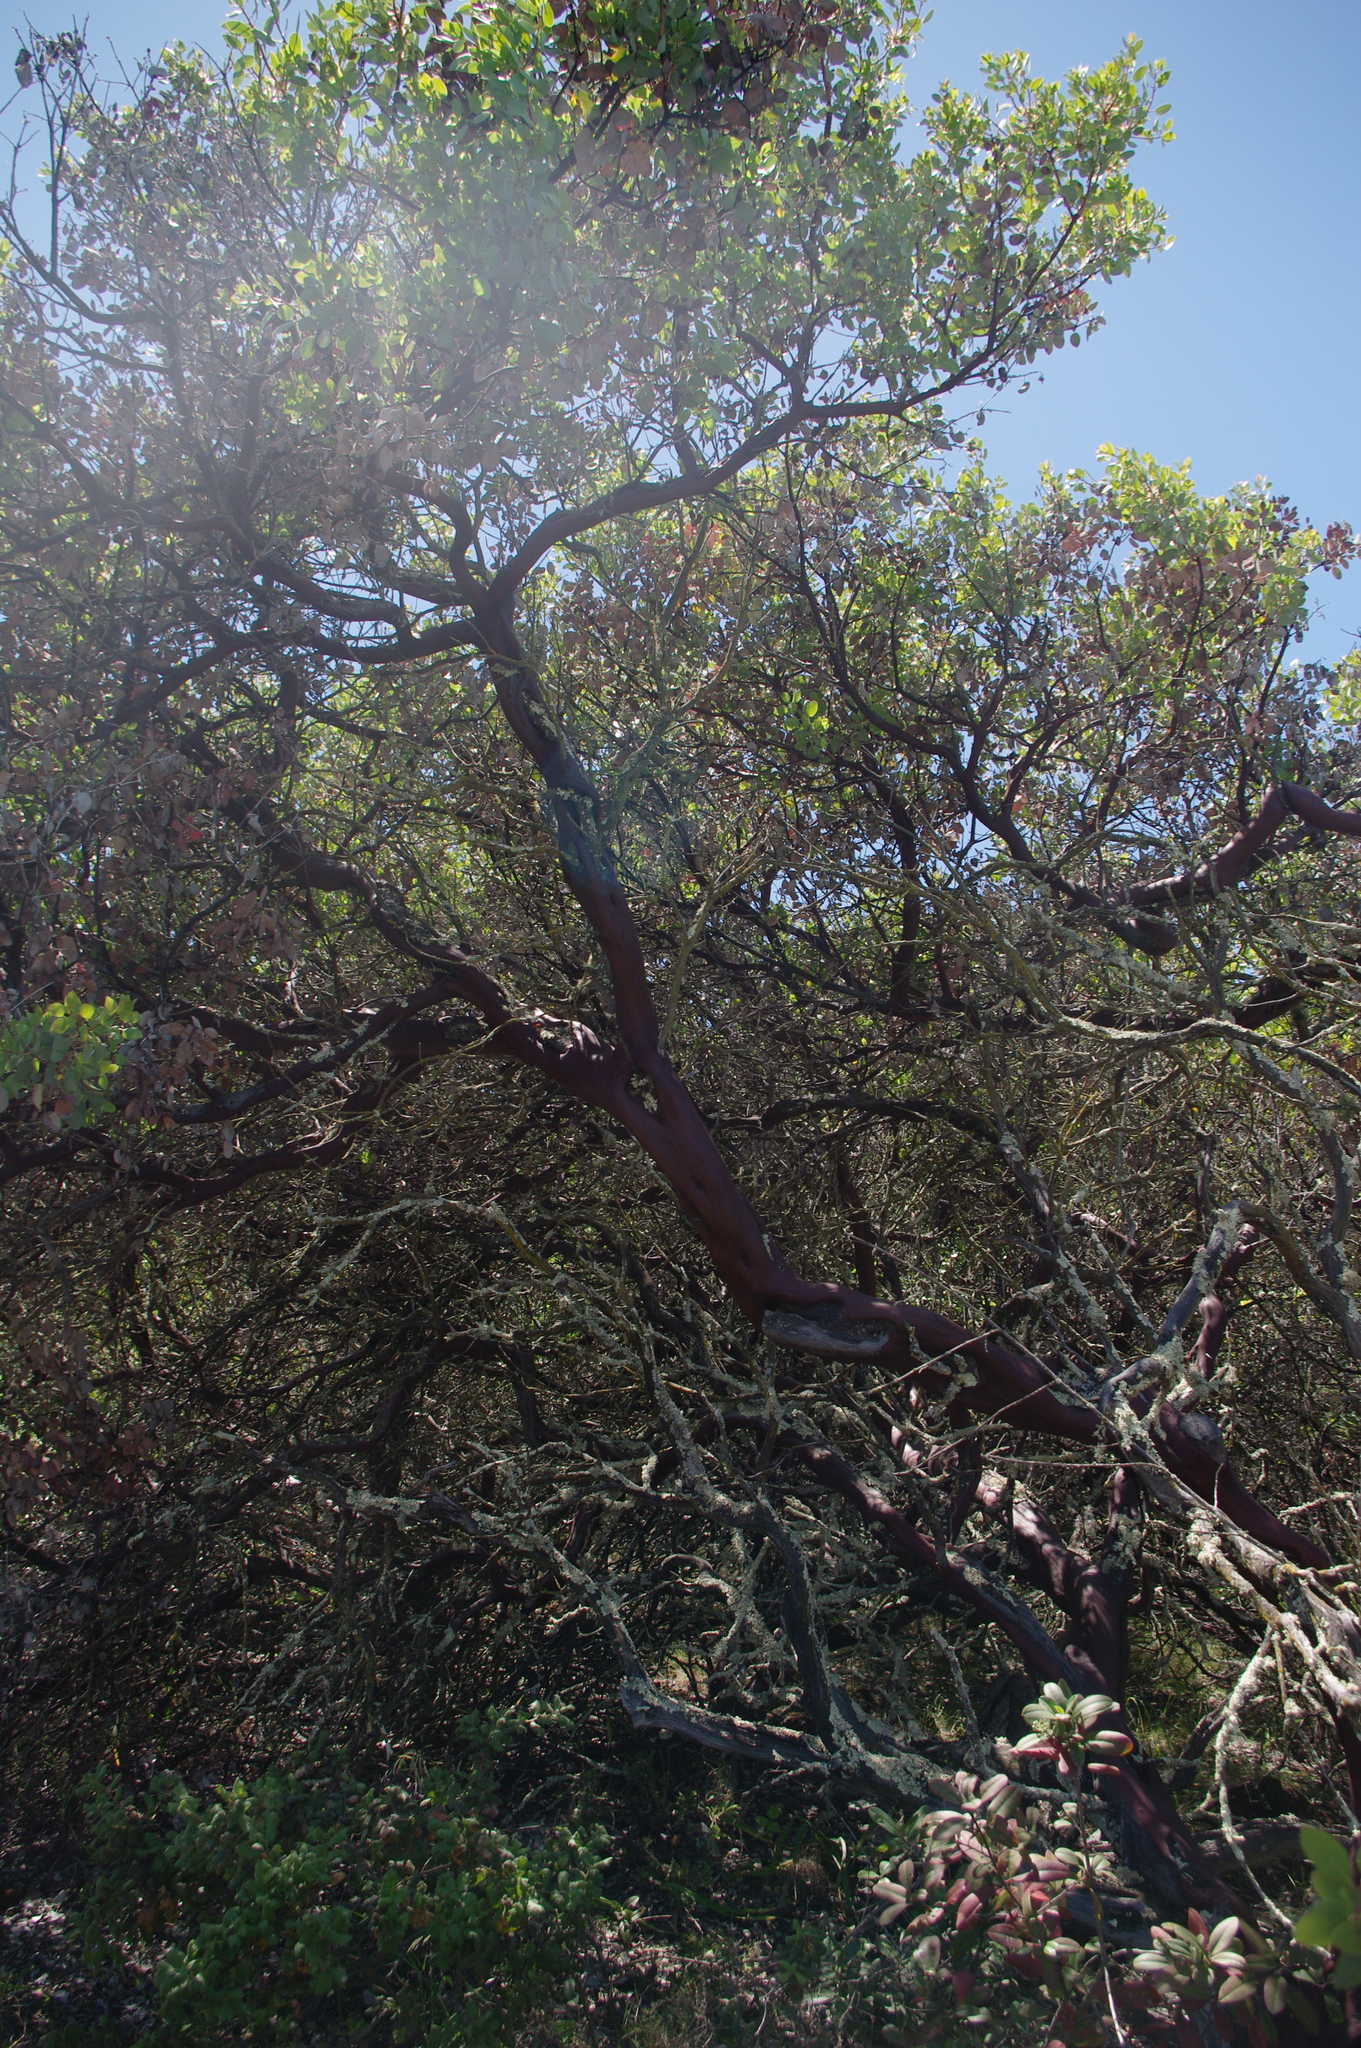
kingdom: Plantae
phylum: Tracheophyta
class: Magnoliopsida
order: Ericales
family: Ericaceae
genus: Arctostaphylos
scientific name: Arctostaphylos glauca
